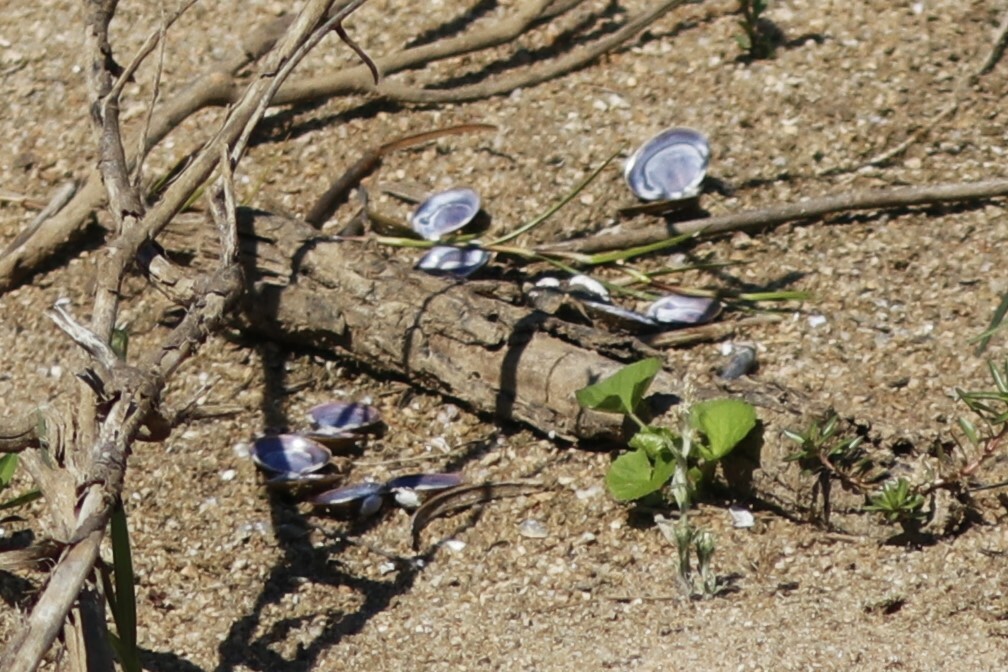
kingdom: Animalia
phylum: Mollusca
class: Bivalvia
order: Venerida
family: Cyrenidae
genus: Corbicula
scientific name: Corbicula africana
